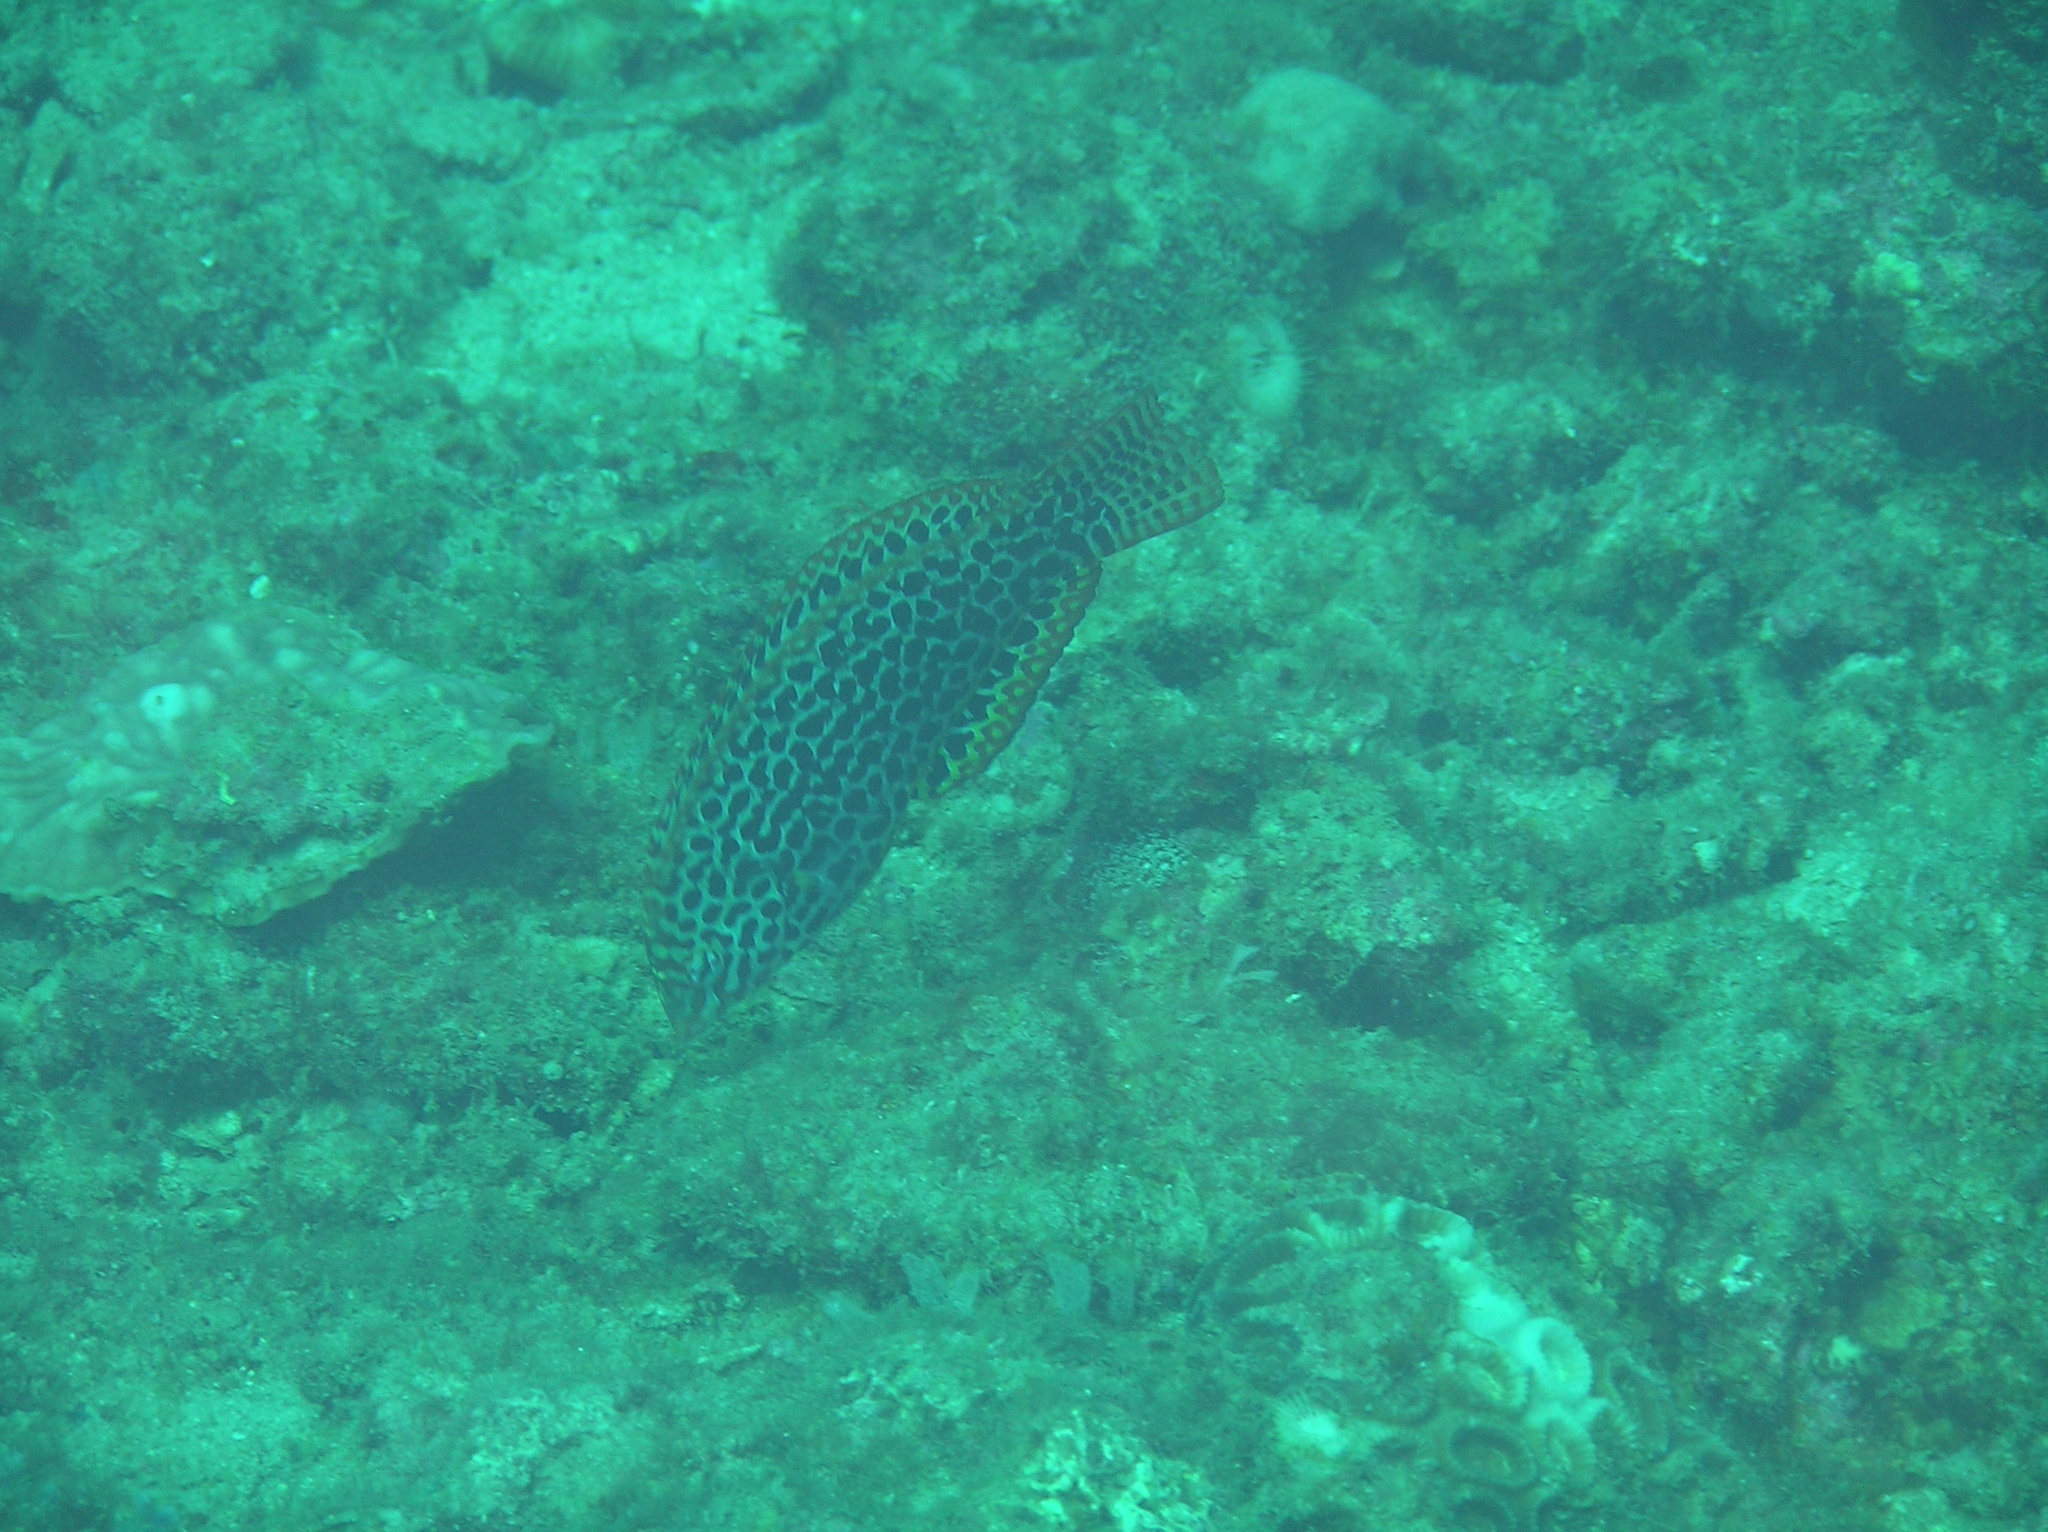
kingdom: Animalia
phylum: Chordata
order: Perciformes
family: Labridae
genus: Macropharyngodon
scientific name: Macropharyngodon meleagris
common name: Leopard wrasse
